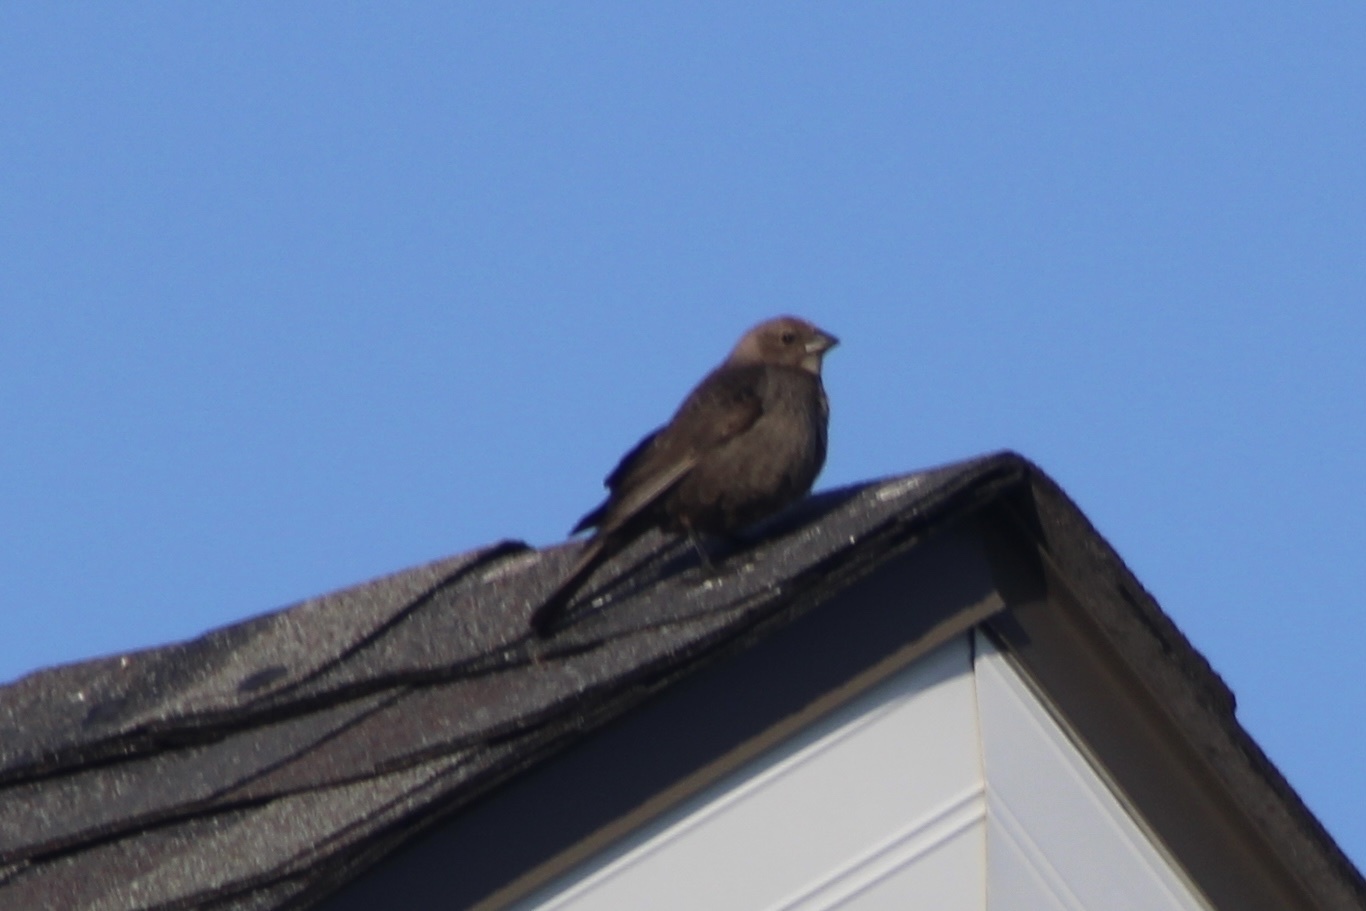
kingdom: Animalia
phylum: Chordata
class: Aves
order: Passeriformes
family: Icteridae
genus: Molothrus
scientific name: Molothrus ater
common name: Brown-headed cowbird
